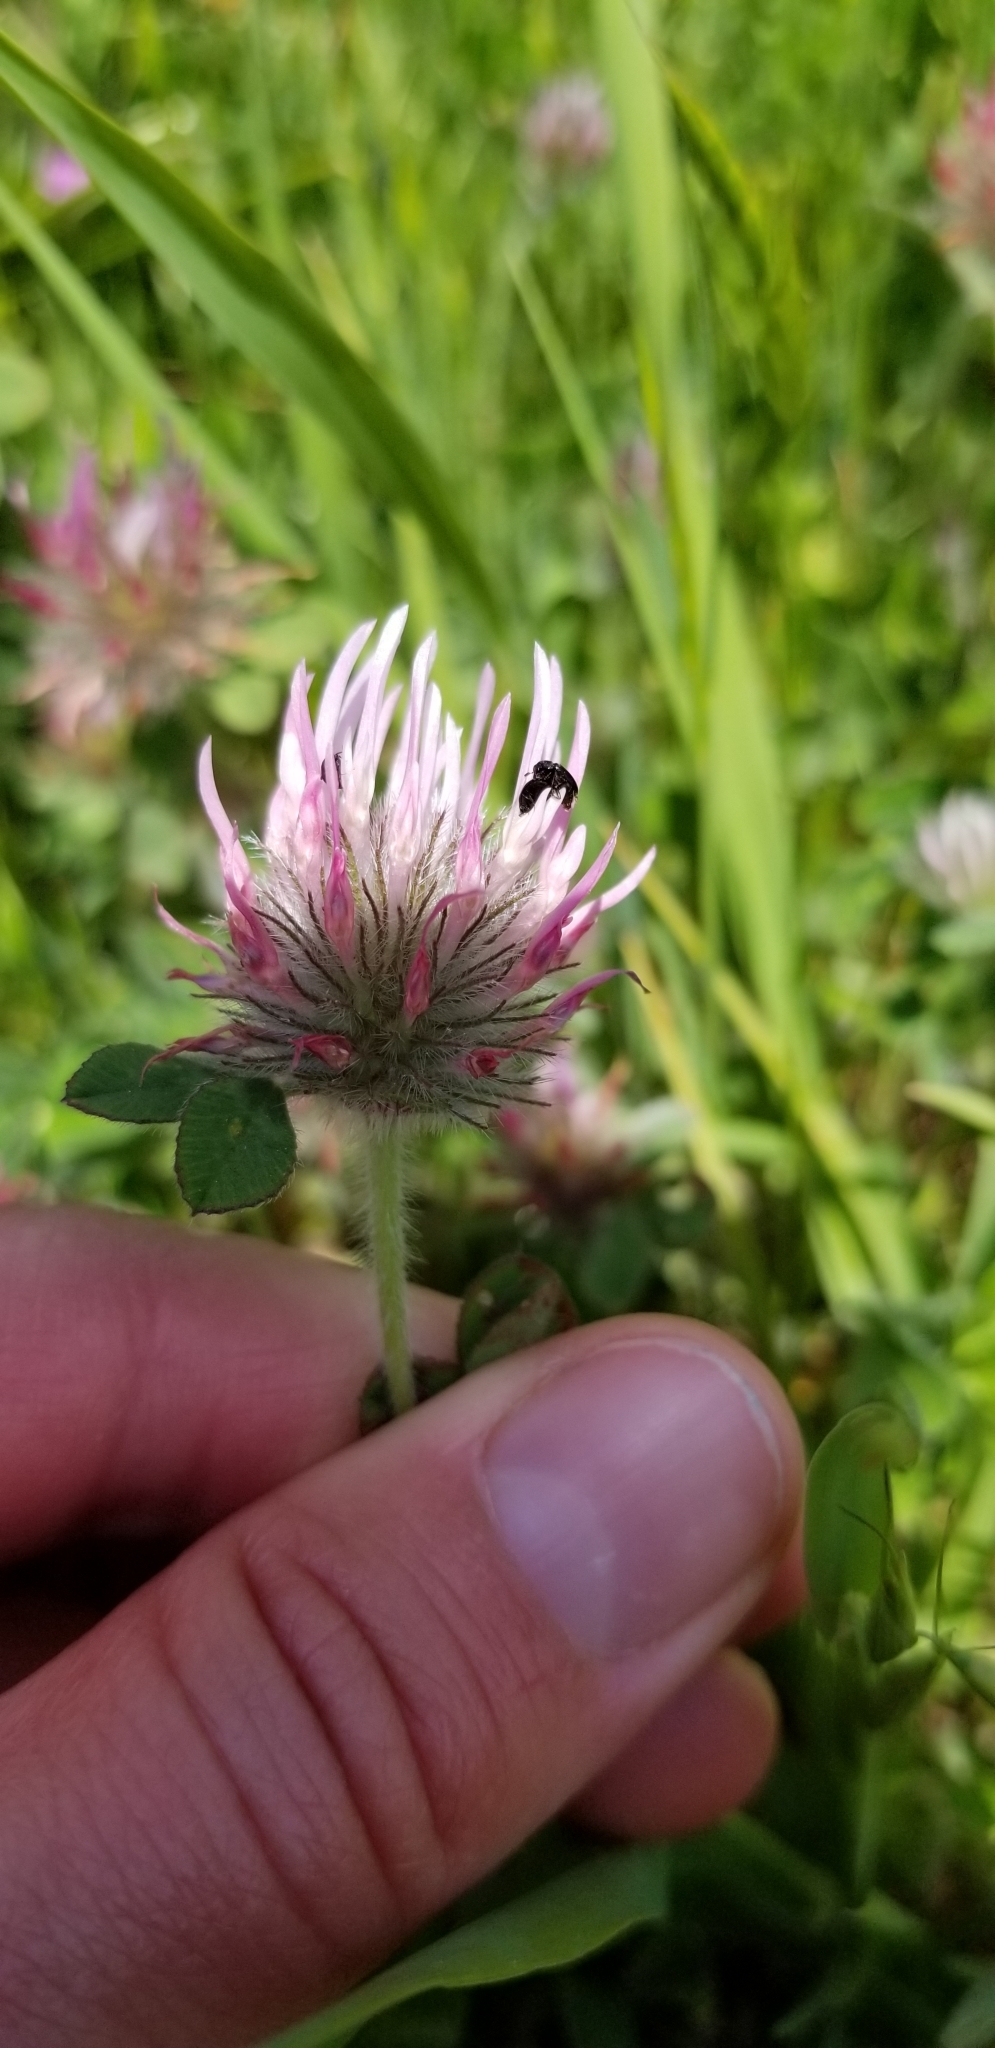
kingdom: Plantae
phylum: Tracheophyta
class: Magnoliopsida
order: Fabales
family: Fabaceae
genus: Trifolium
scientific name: Trifolium hirtum
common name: Rose clover
